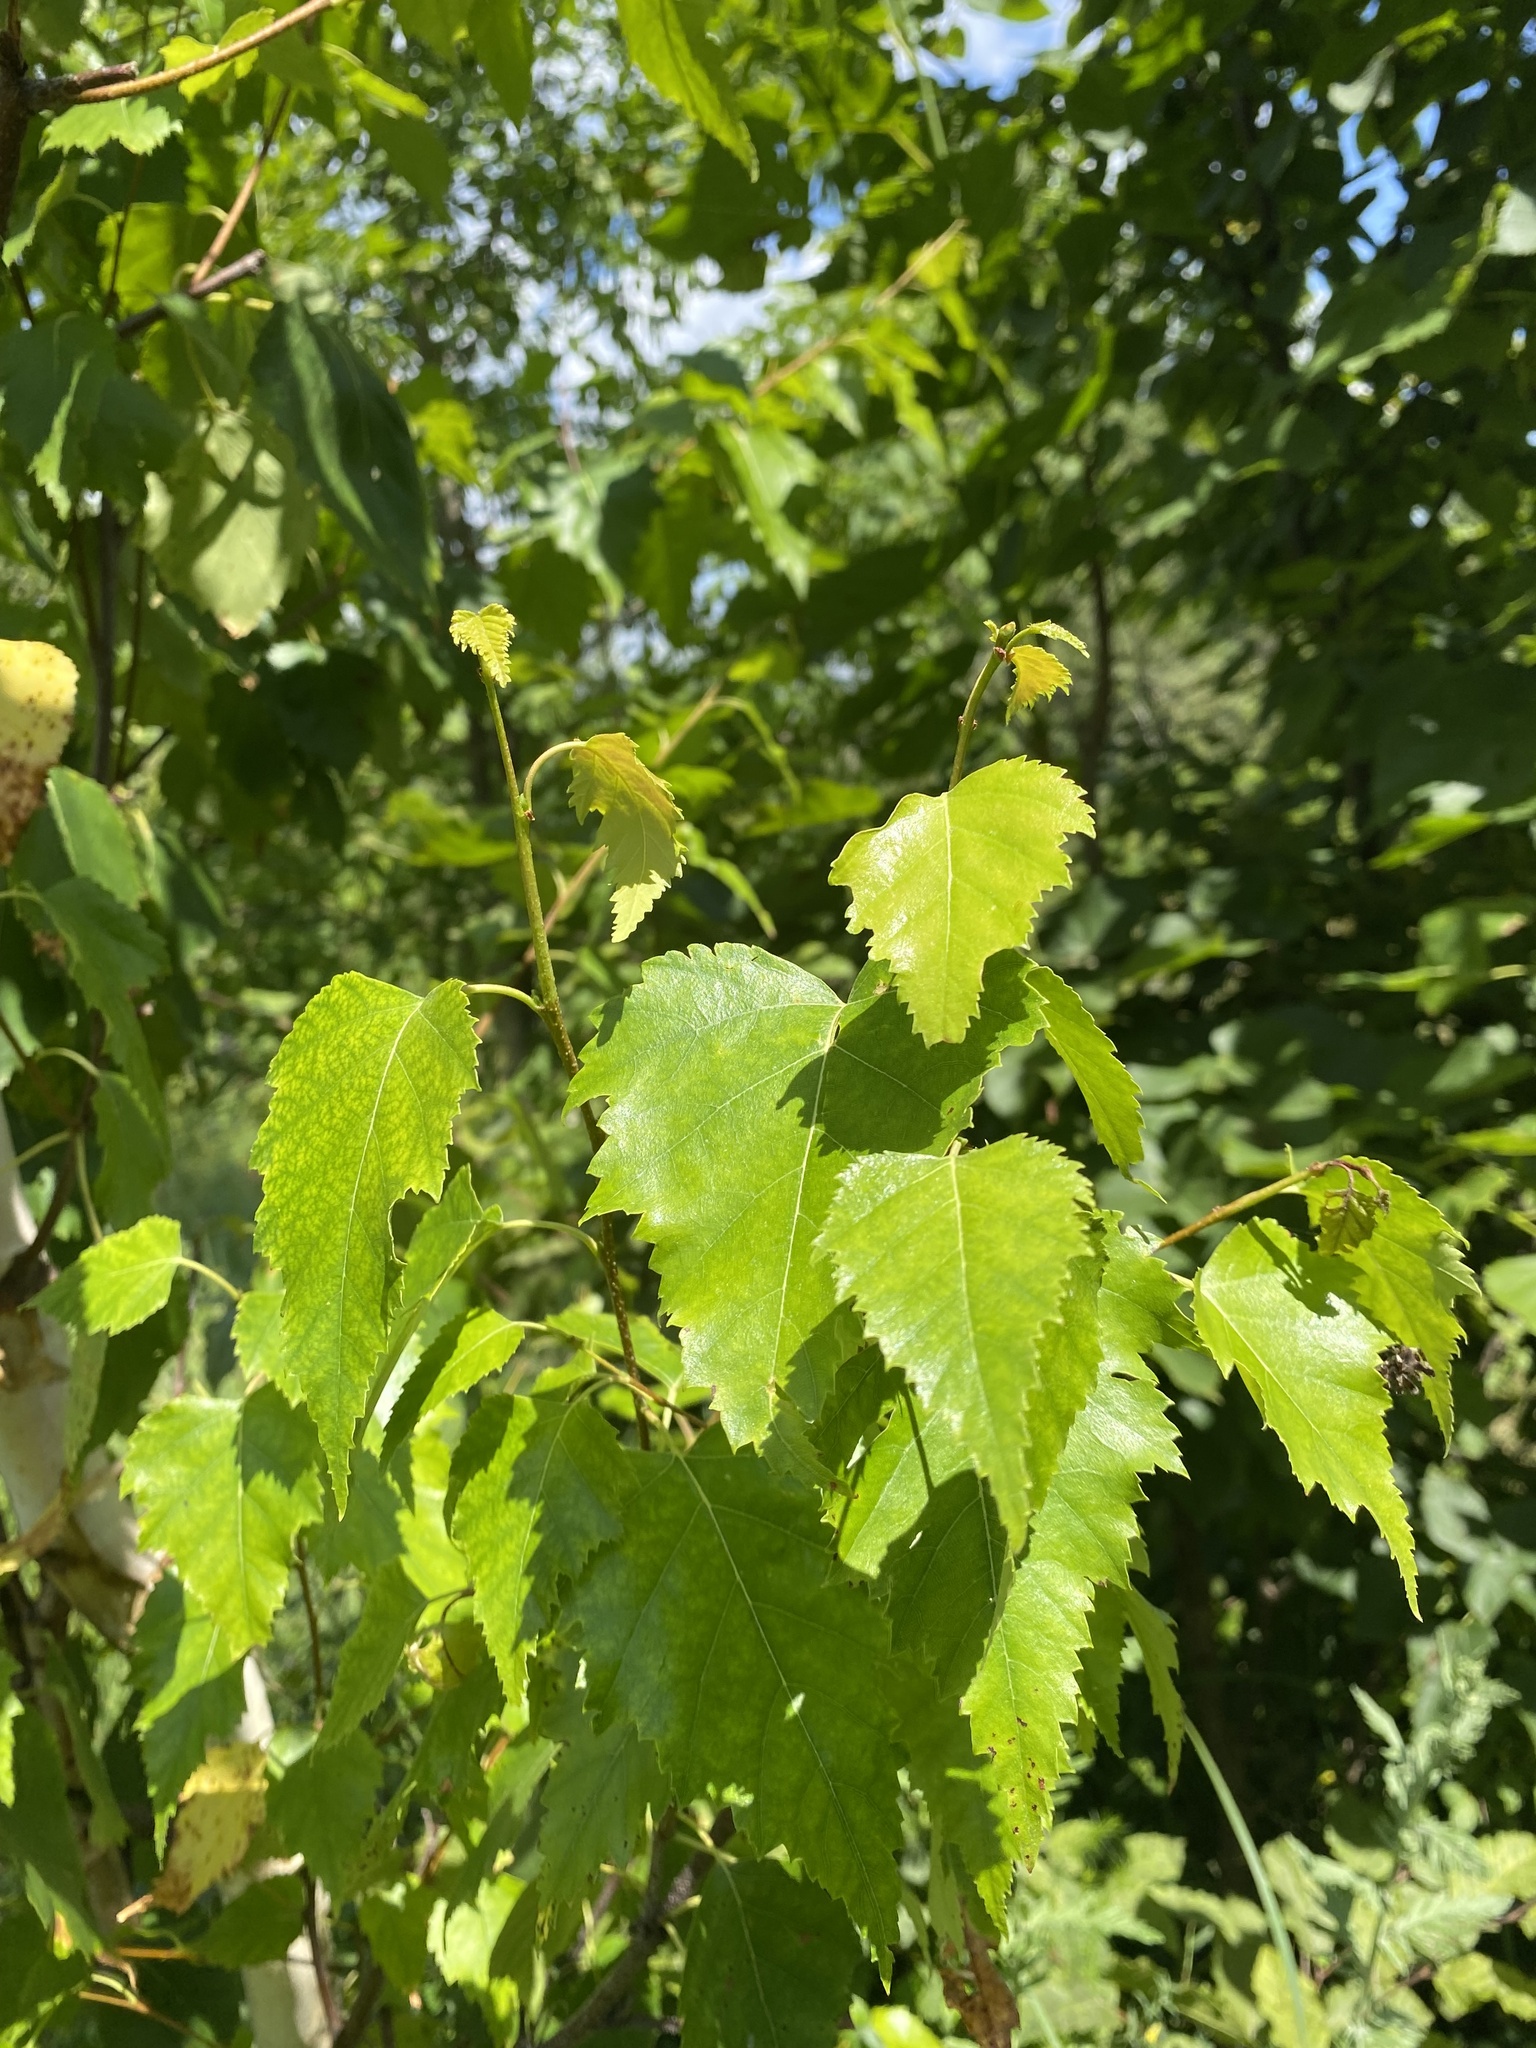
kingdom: Plantae
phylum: Tracheophyta
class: Magnoliopsida
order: Fagales
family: Betulaceae
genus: Betula
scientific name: Betula pendula
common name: Silver birch
